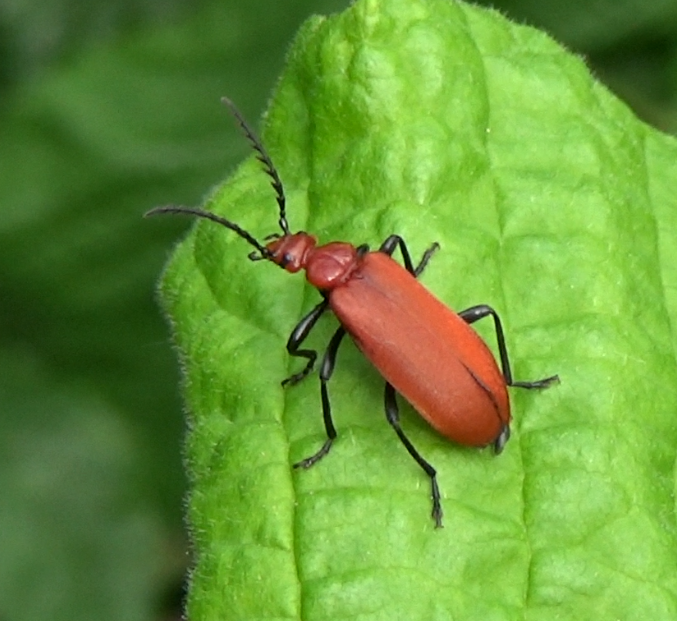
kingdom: Animalia
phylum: Arthropoda
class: Insecta
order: Coleoptera
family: Pyrochroidae
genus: Pyrochroa
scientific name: Pyrochroa serraticornis
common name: Red-headed cardinal beetle
